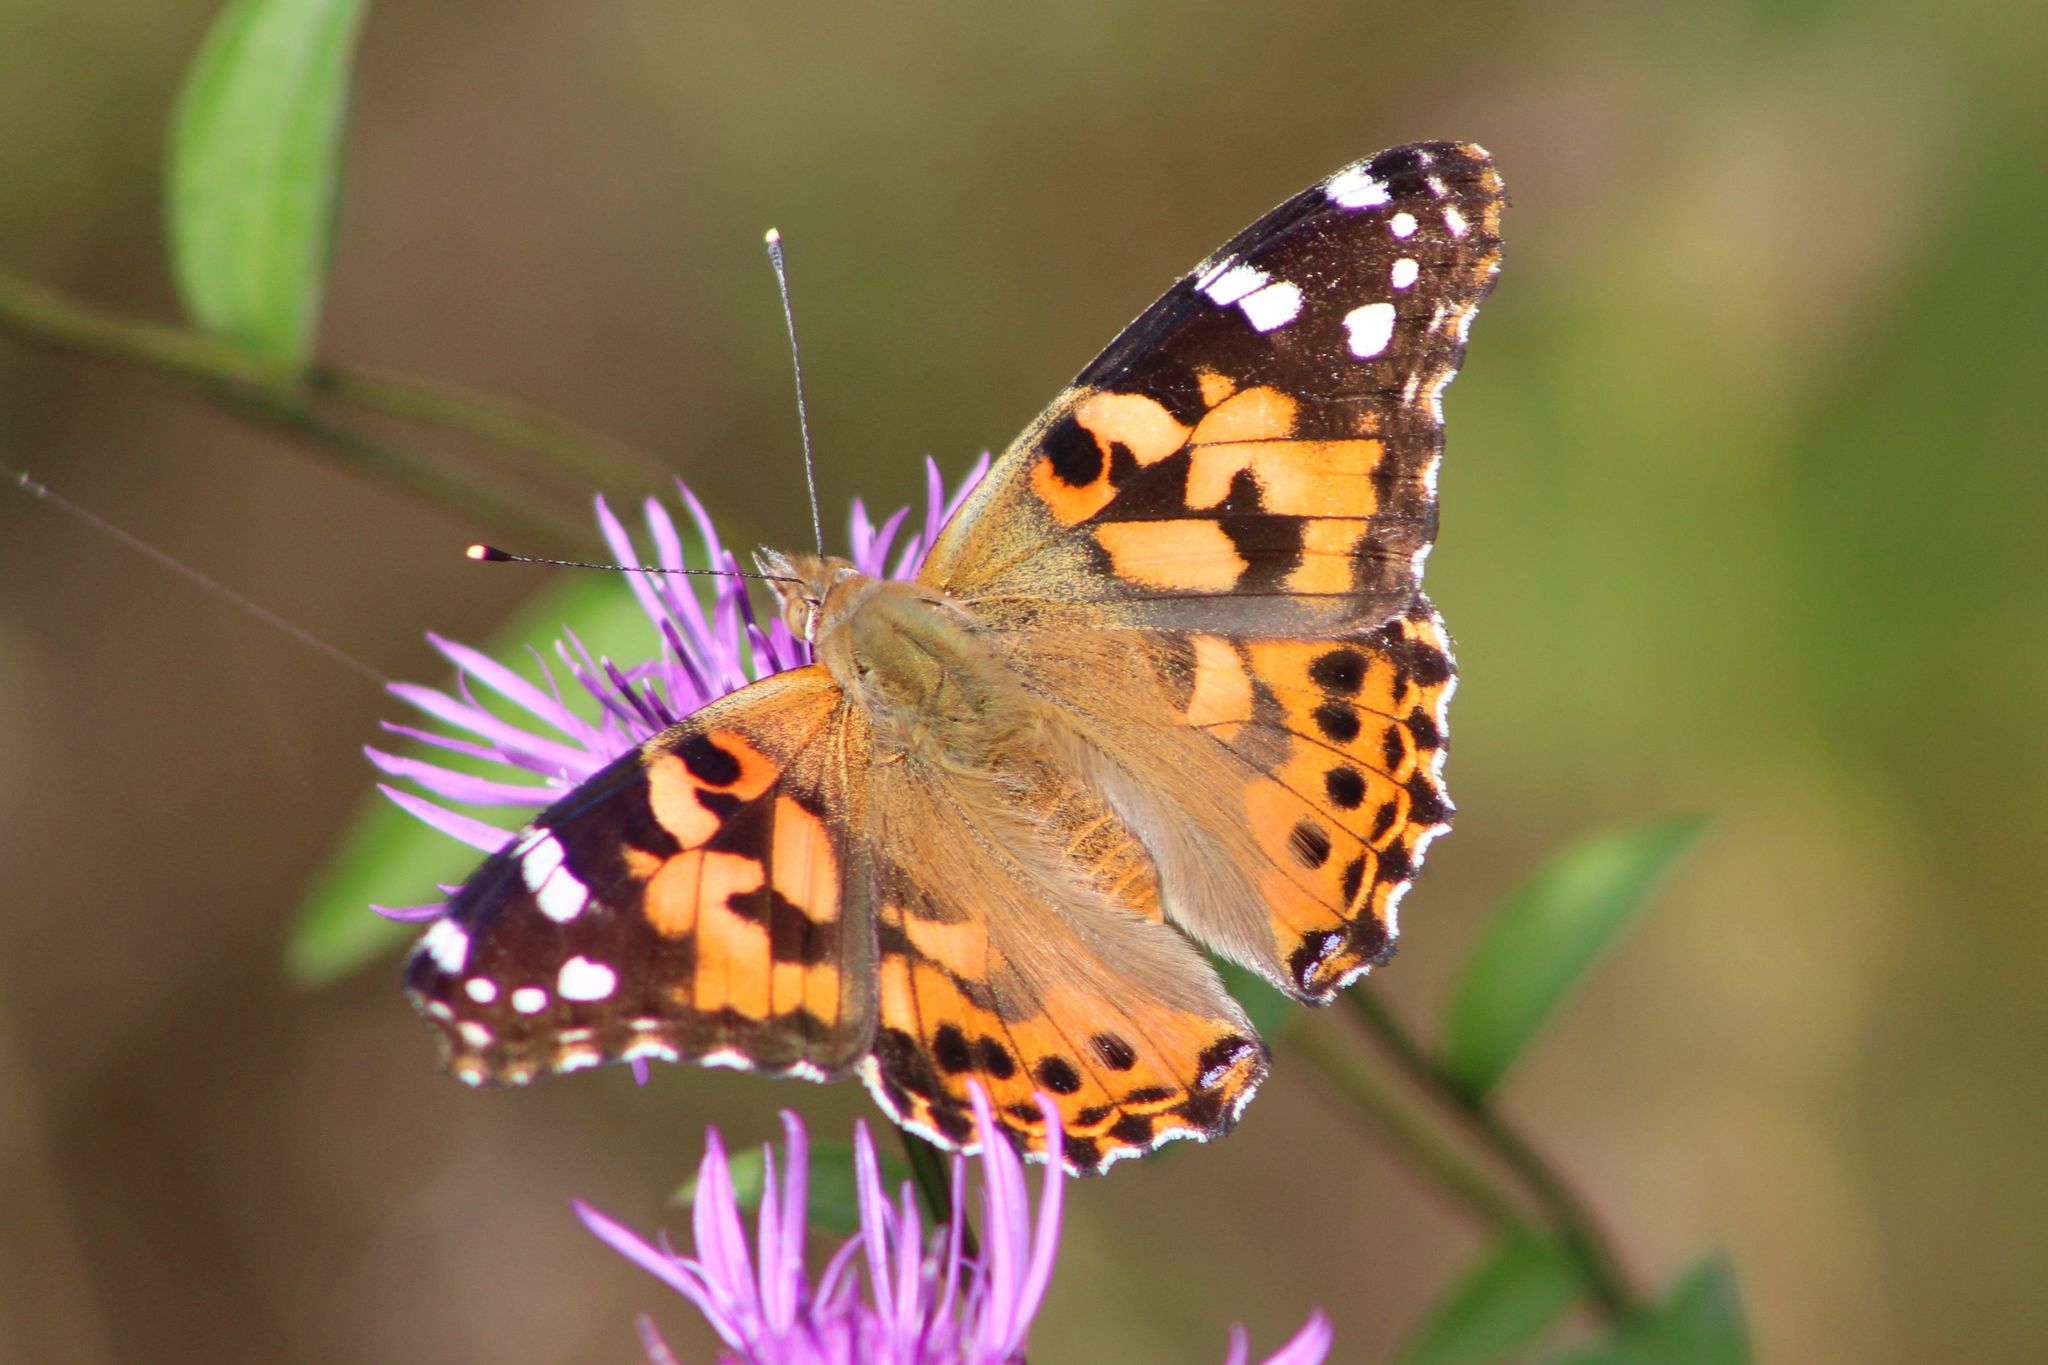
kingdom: Animalia
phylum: Arthropoda
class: Insecta
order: Lepidoptera
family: Nymphalidae
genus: Vanessa
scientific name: Vanessa cardui
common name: Painted lady
